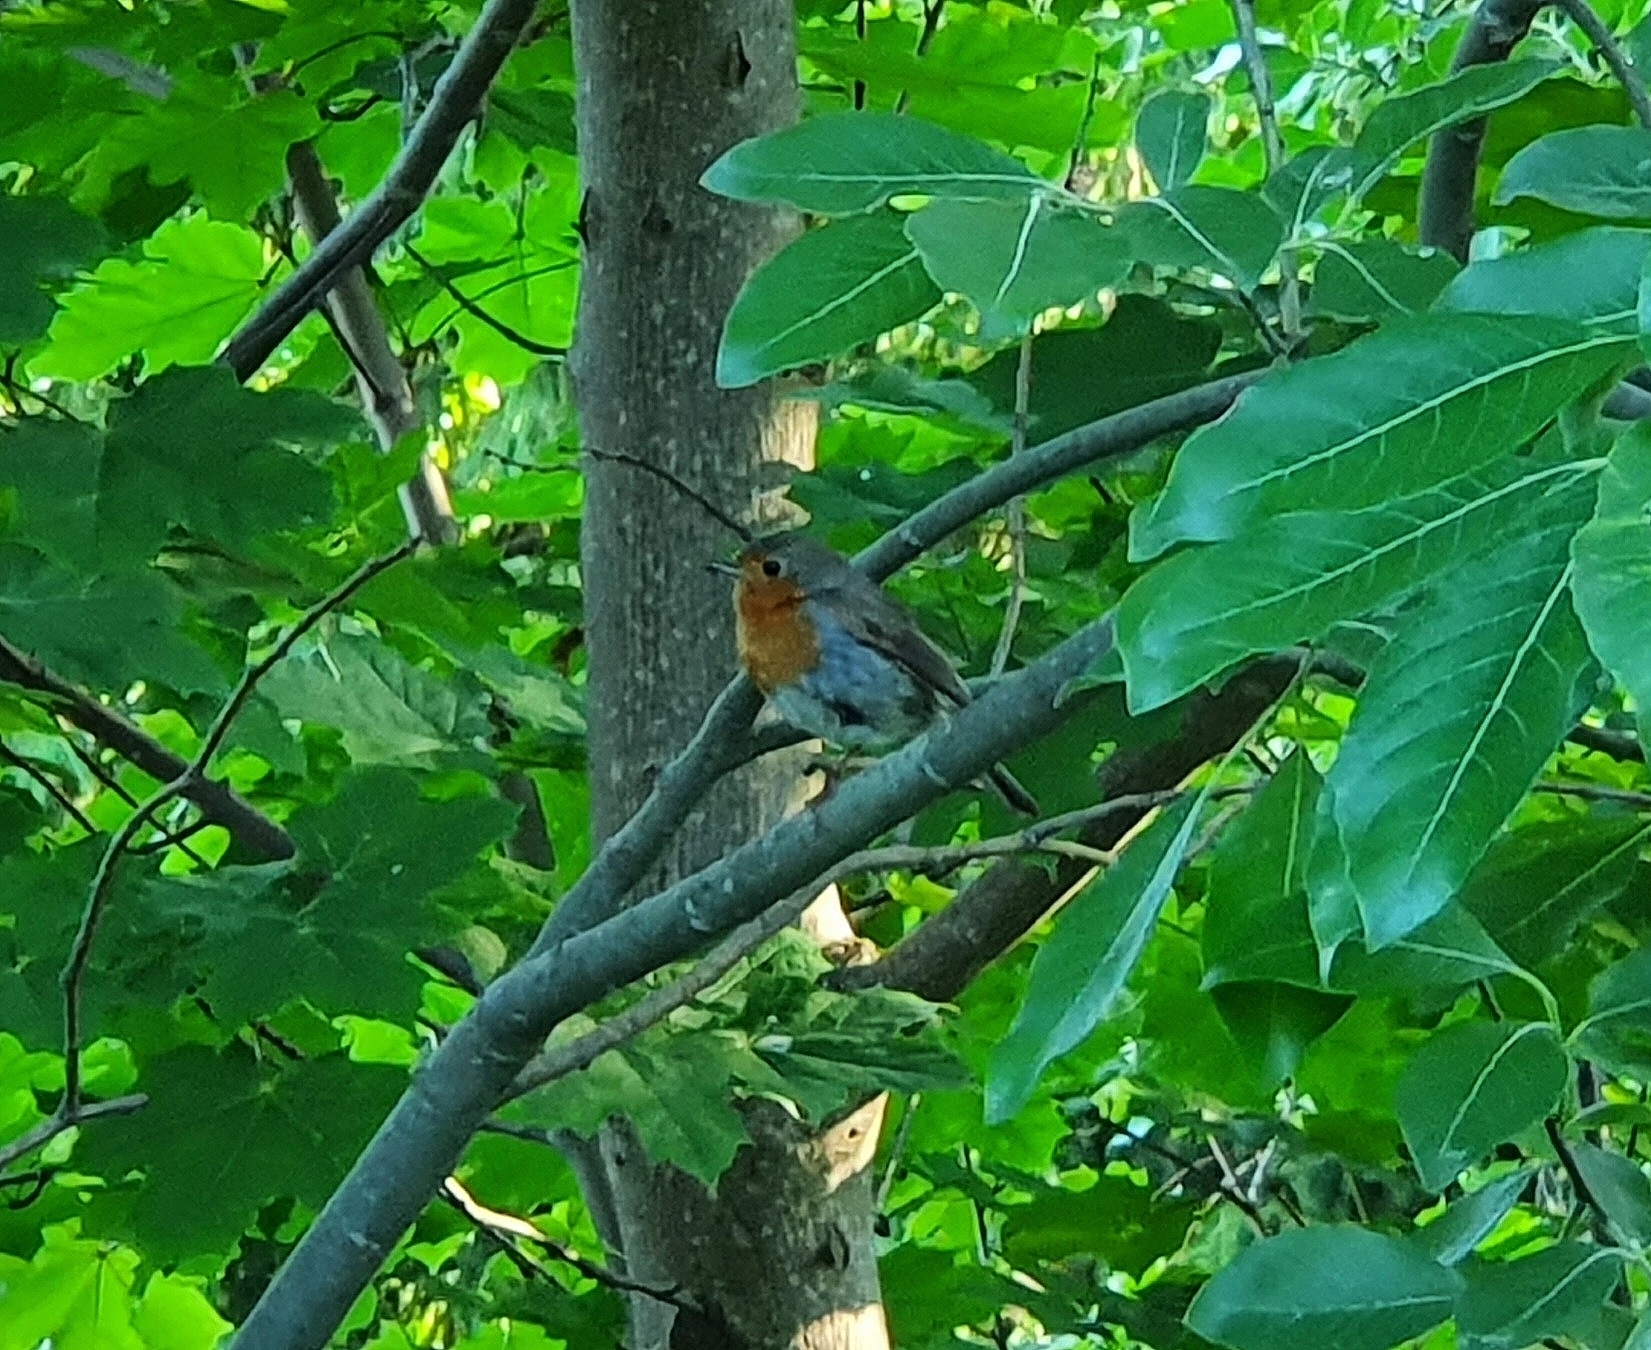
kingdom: Animalia
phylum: Chordata
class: Aves
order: Passeriformes
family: Muscicapidae
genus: Erithacus
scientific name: Erithacus rubecula
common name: European robin
